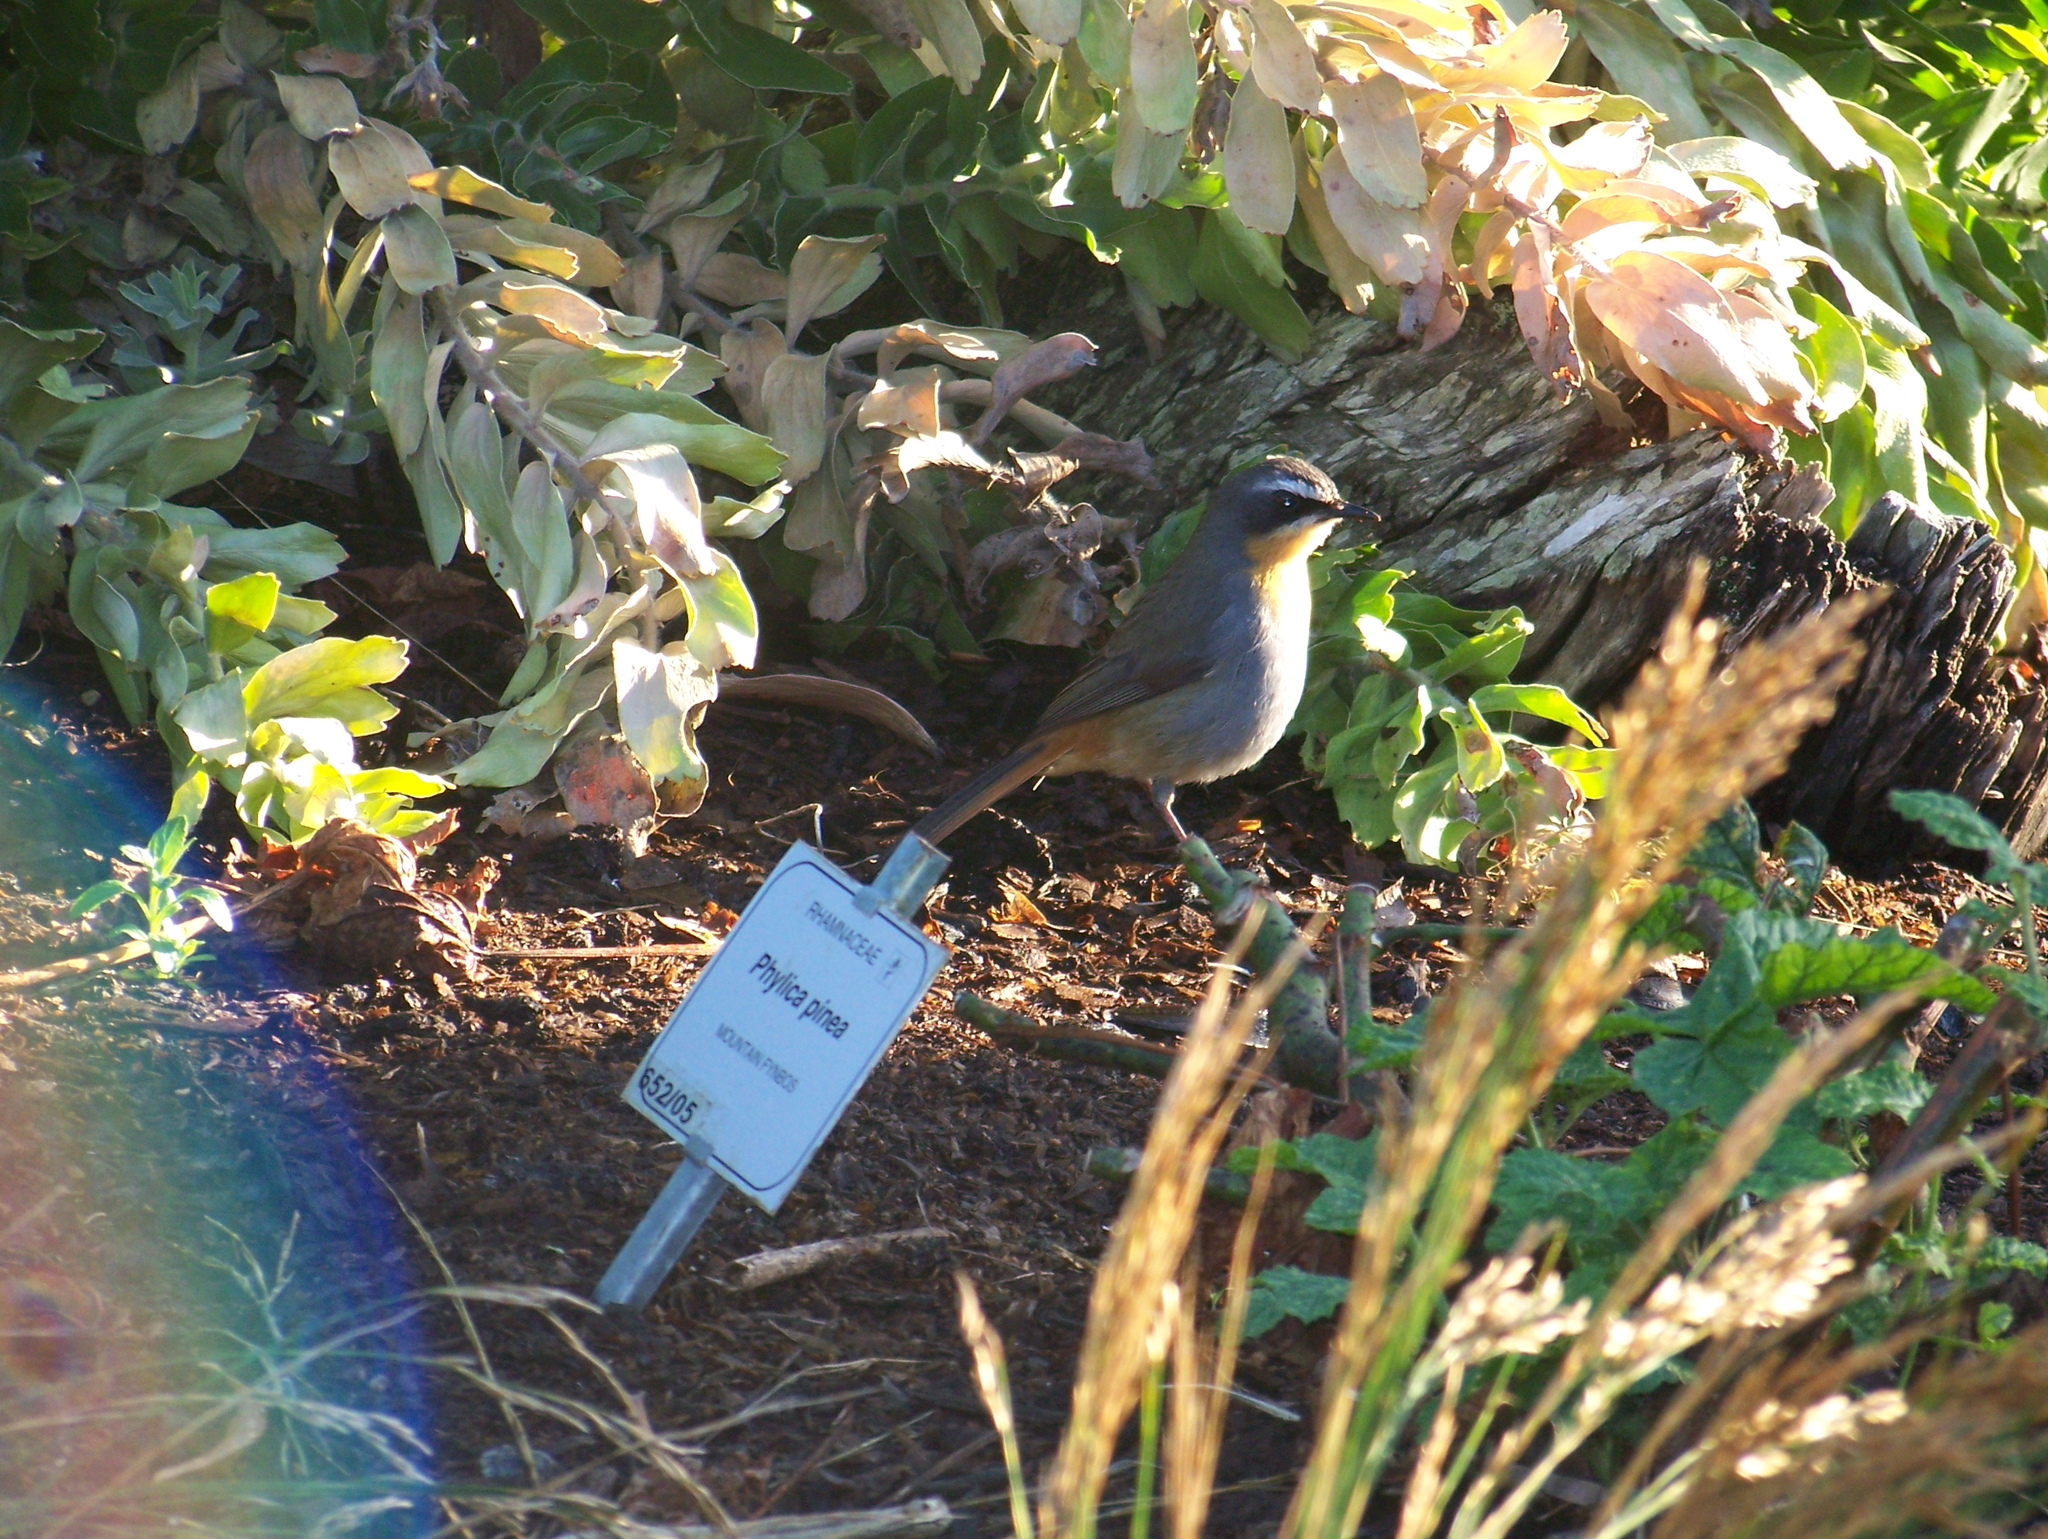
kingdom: Animalia
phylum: Chordata
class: Aves
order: Passeriformes
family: Muscicapidae
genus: Cossypha
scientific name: Cossypha caffra
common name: Cape robin-chat
